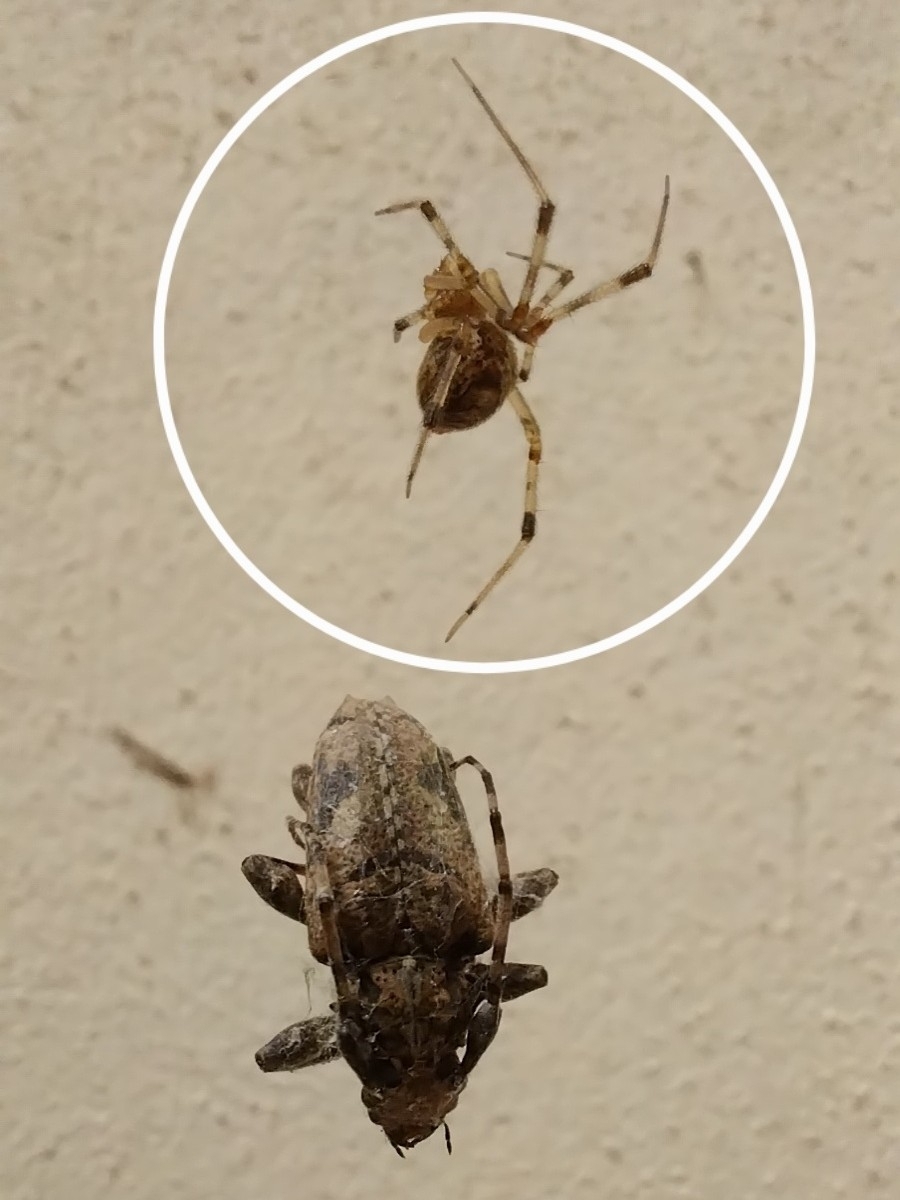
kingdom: Animalia
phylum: Arthropoda
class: Arachnida
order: Araneae
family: Theridiidae
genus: Parasteatoda
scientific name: Parasteatoda tepidariorum
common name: Common house spider
